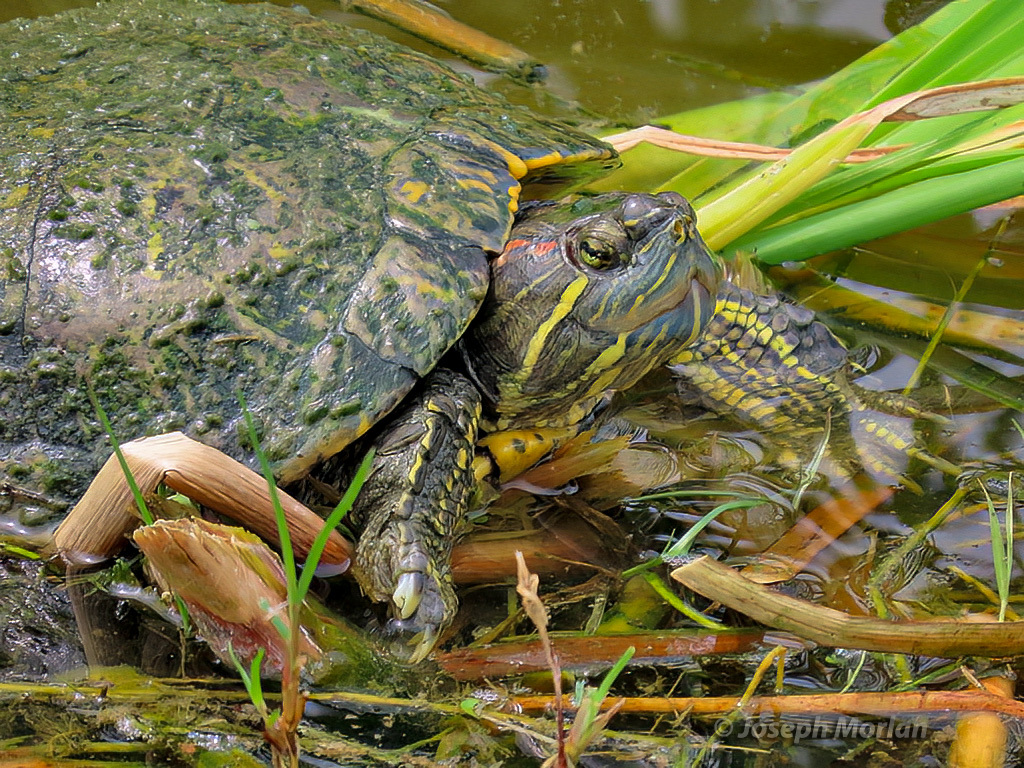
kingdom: Animalia
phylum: Chordata
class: Testudines
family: Emydidae
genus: Trachemys
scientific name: Trachemys scripta
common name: Slider
